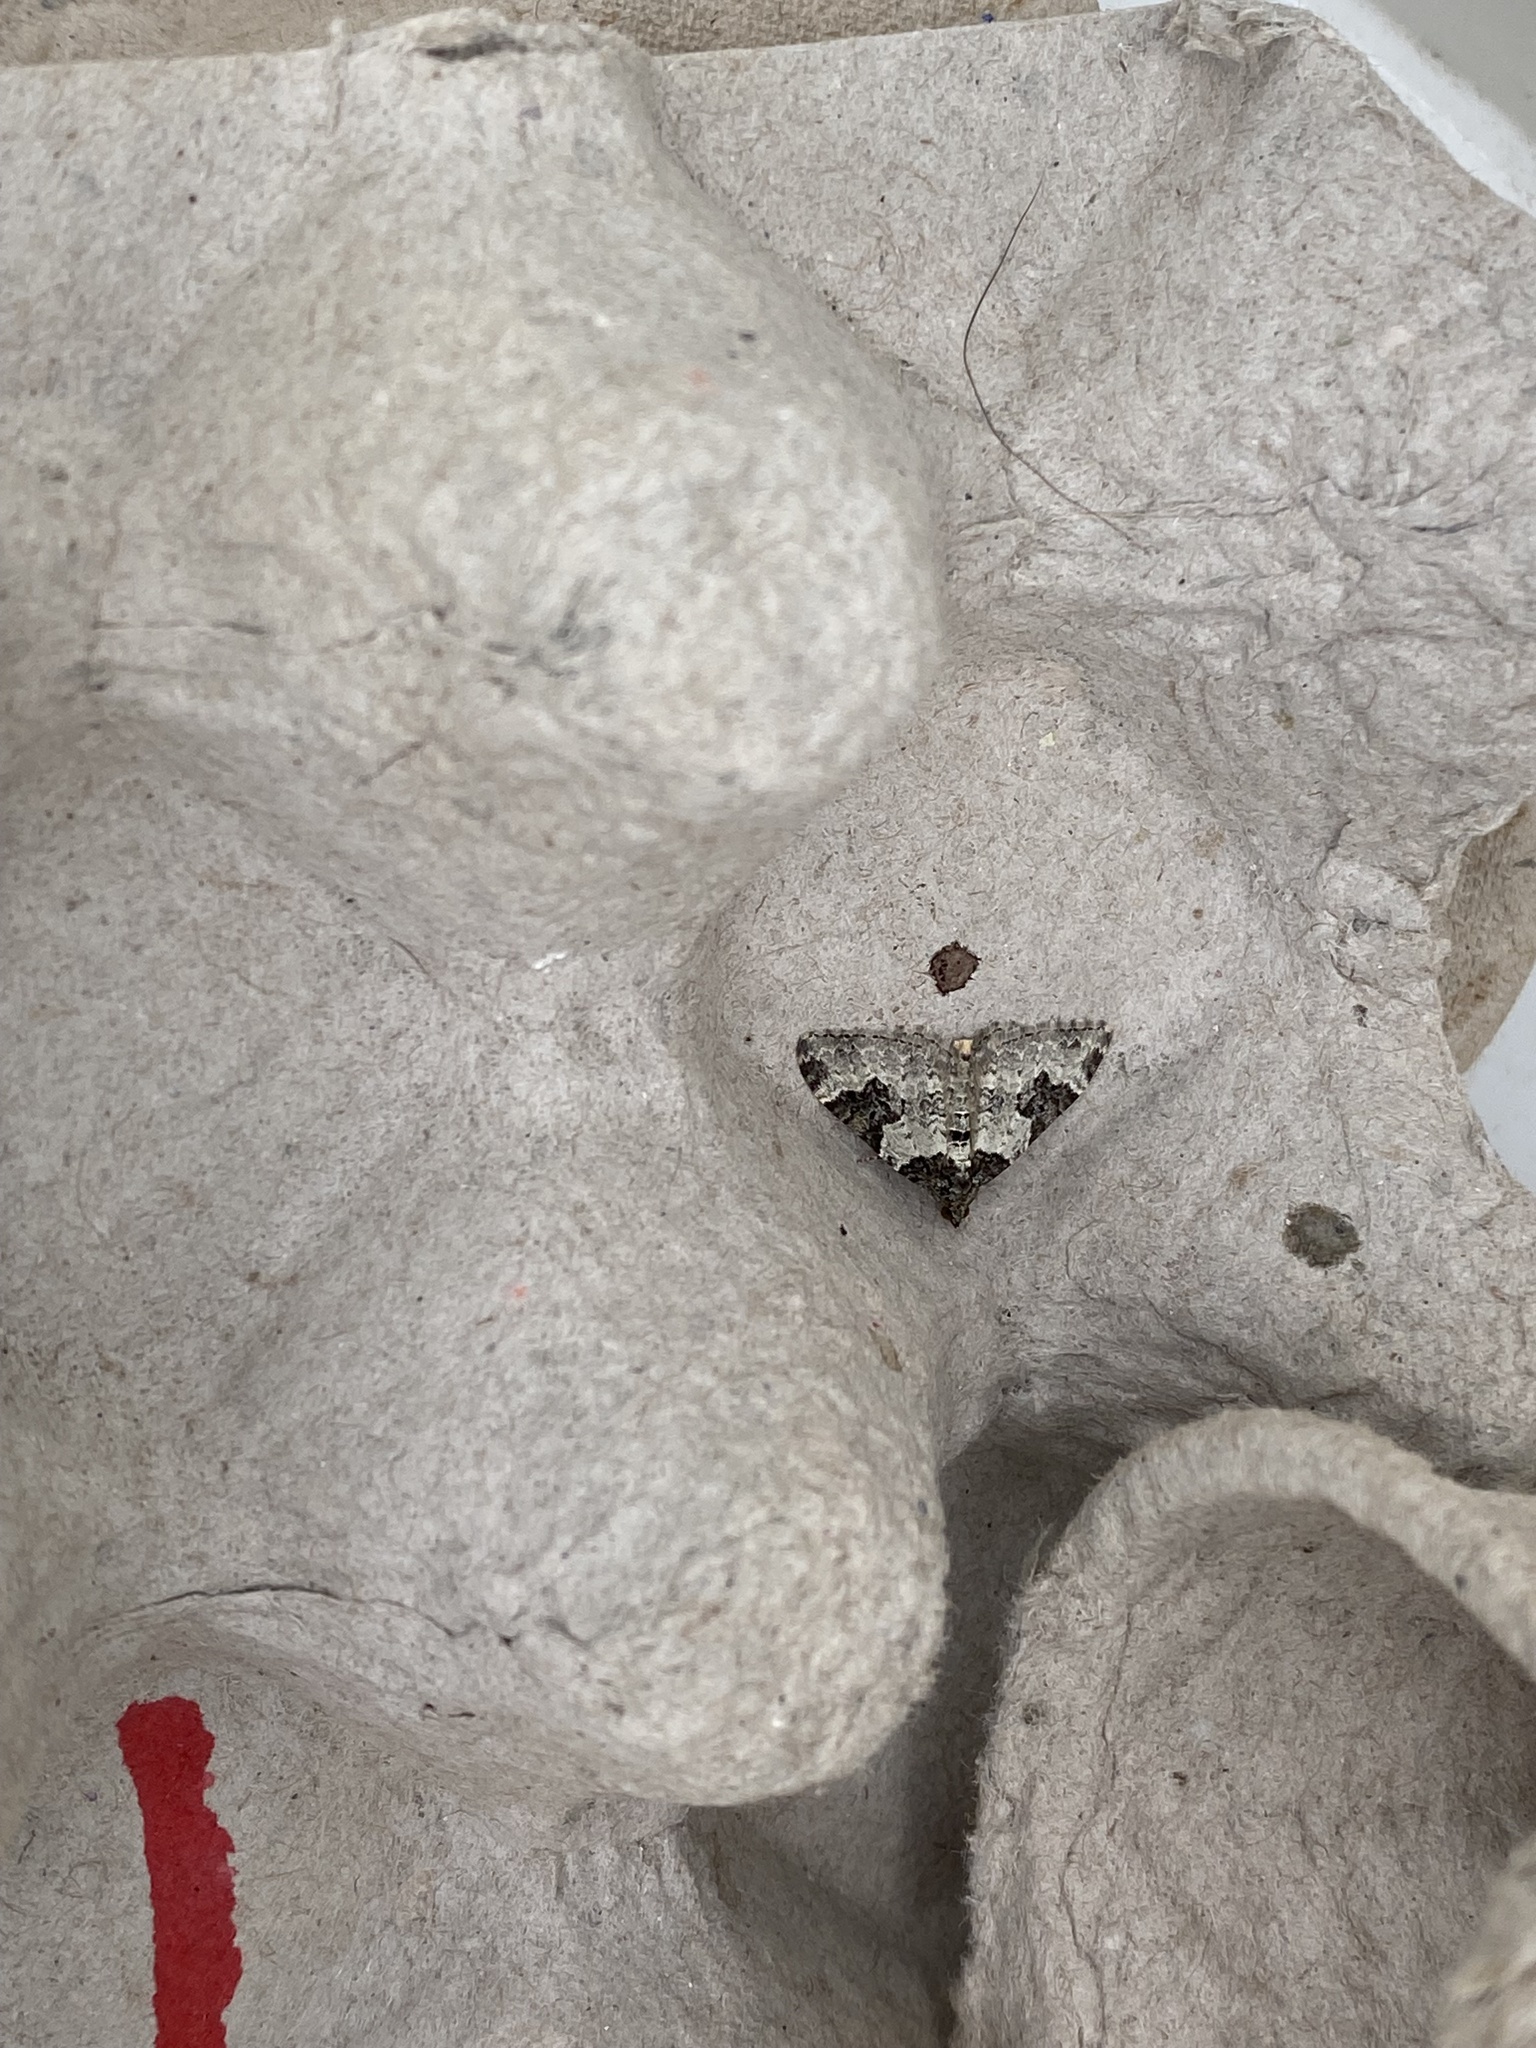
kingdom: Animalia
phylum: Arthropoda
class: Insecta
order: Lepidoptera
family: Geometridae
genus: Xanthorhoe
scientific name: Xanthorhoe fluctuata
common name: Garden carpet
